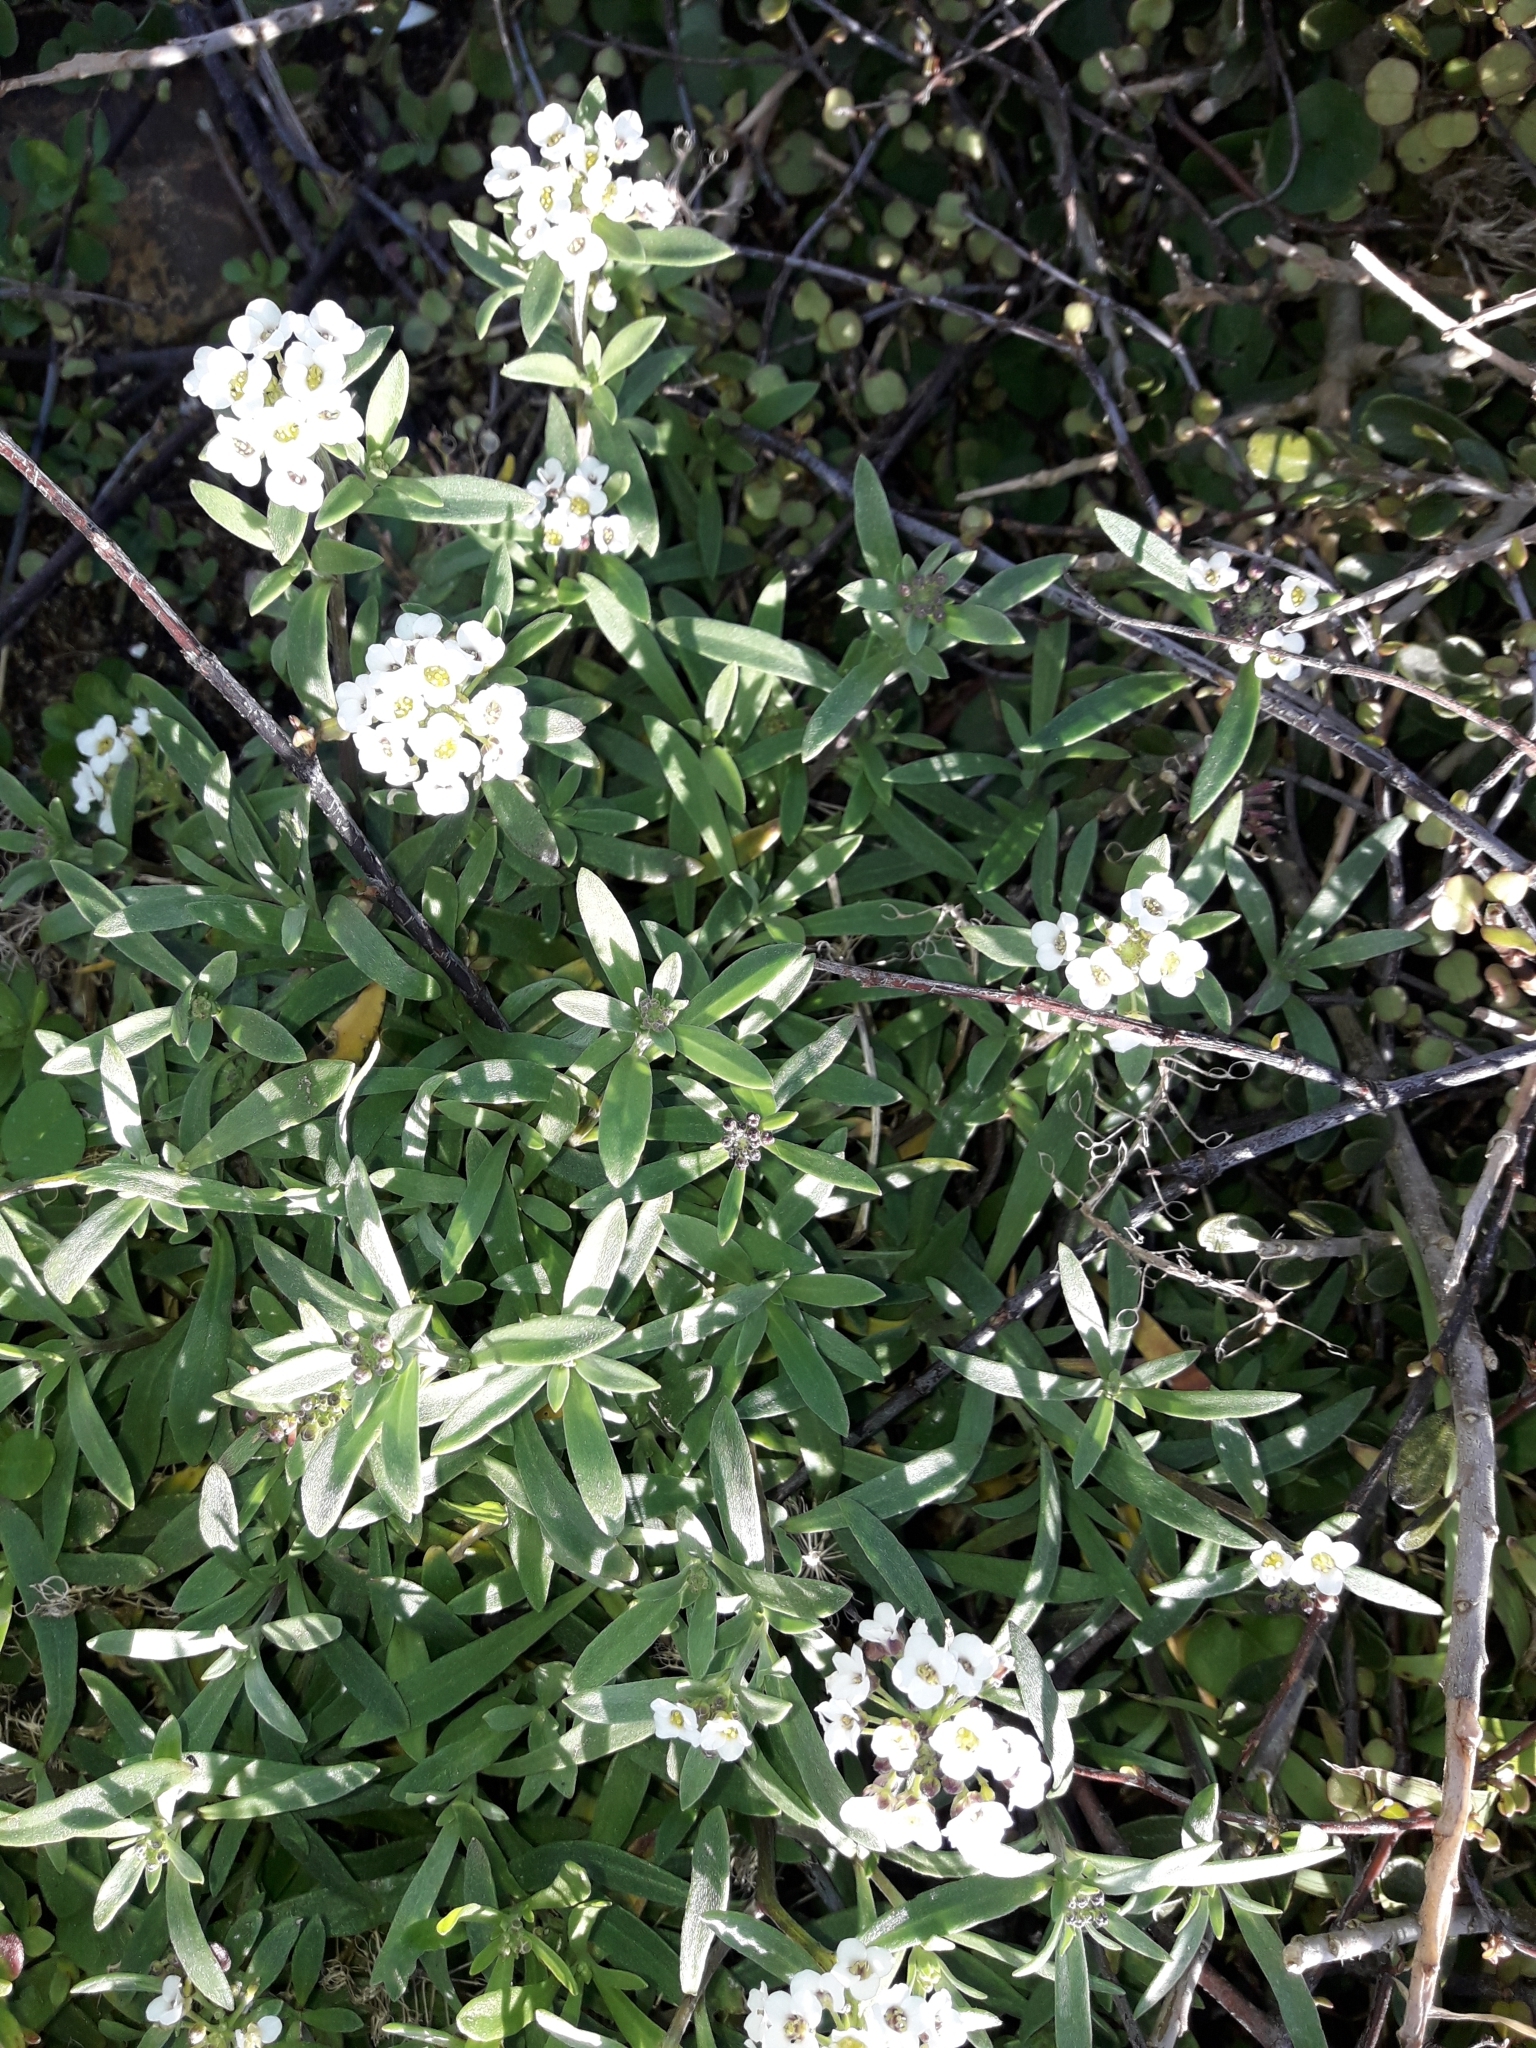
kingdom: Plantae
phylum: Tracheophyta
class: Magnoliopsida
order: Brassicales
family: Brassicaceae
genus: Lobularia
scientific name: Lobularia maritima
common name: Sweet alison
